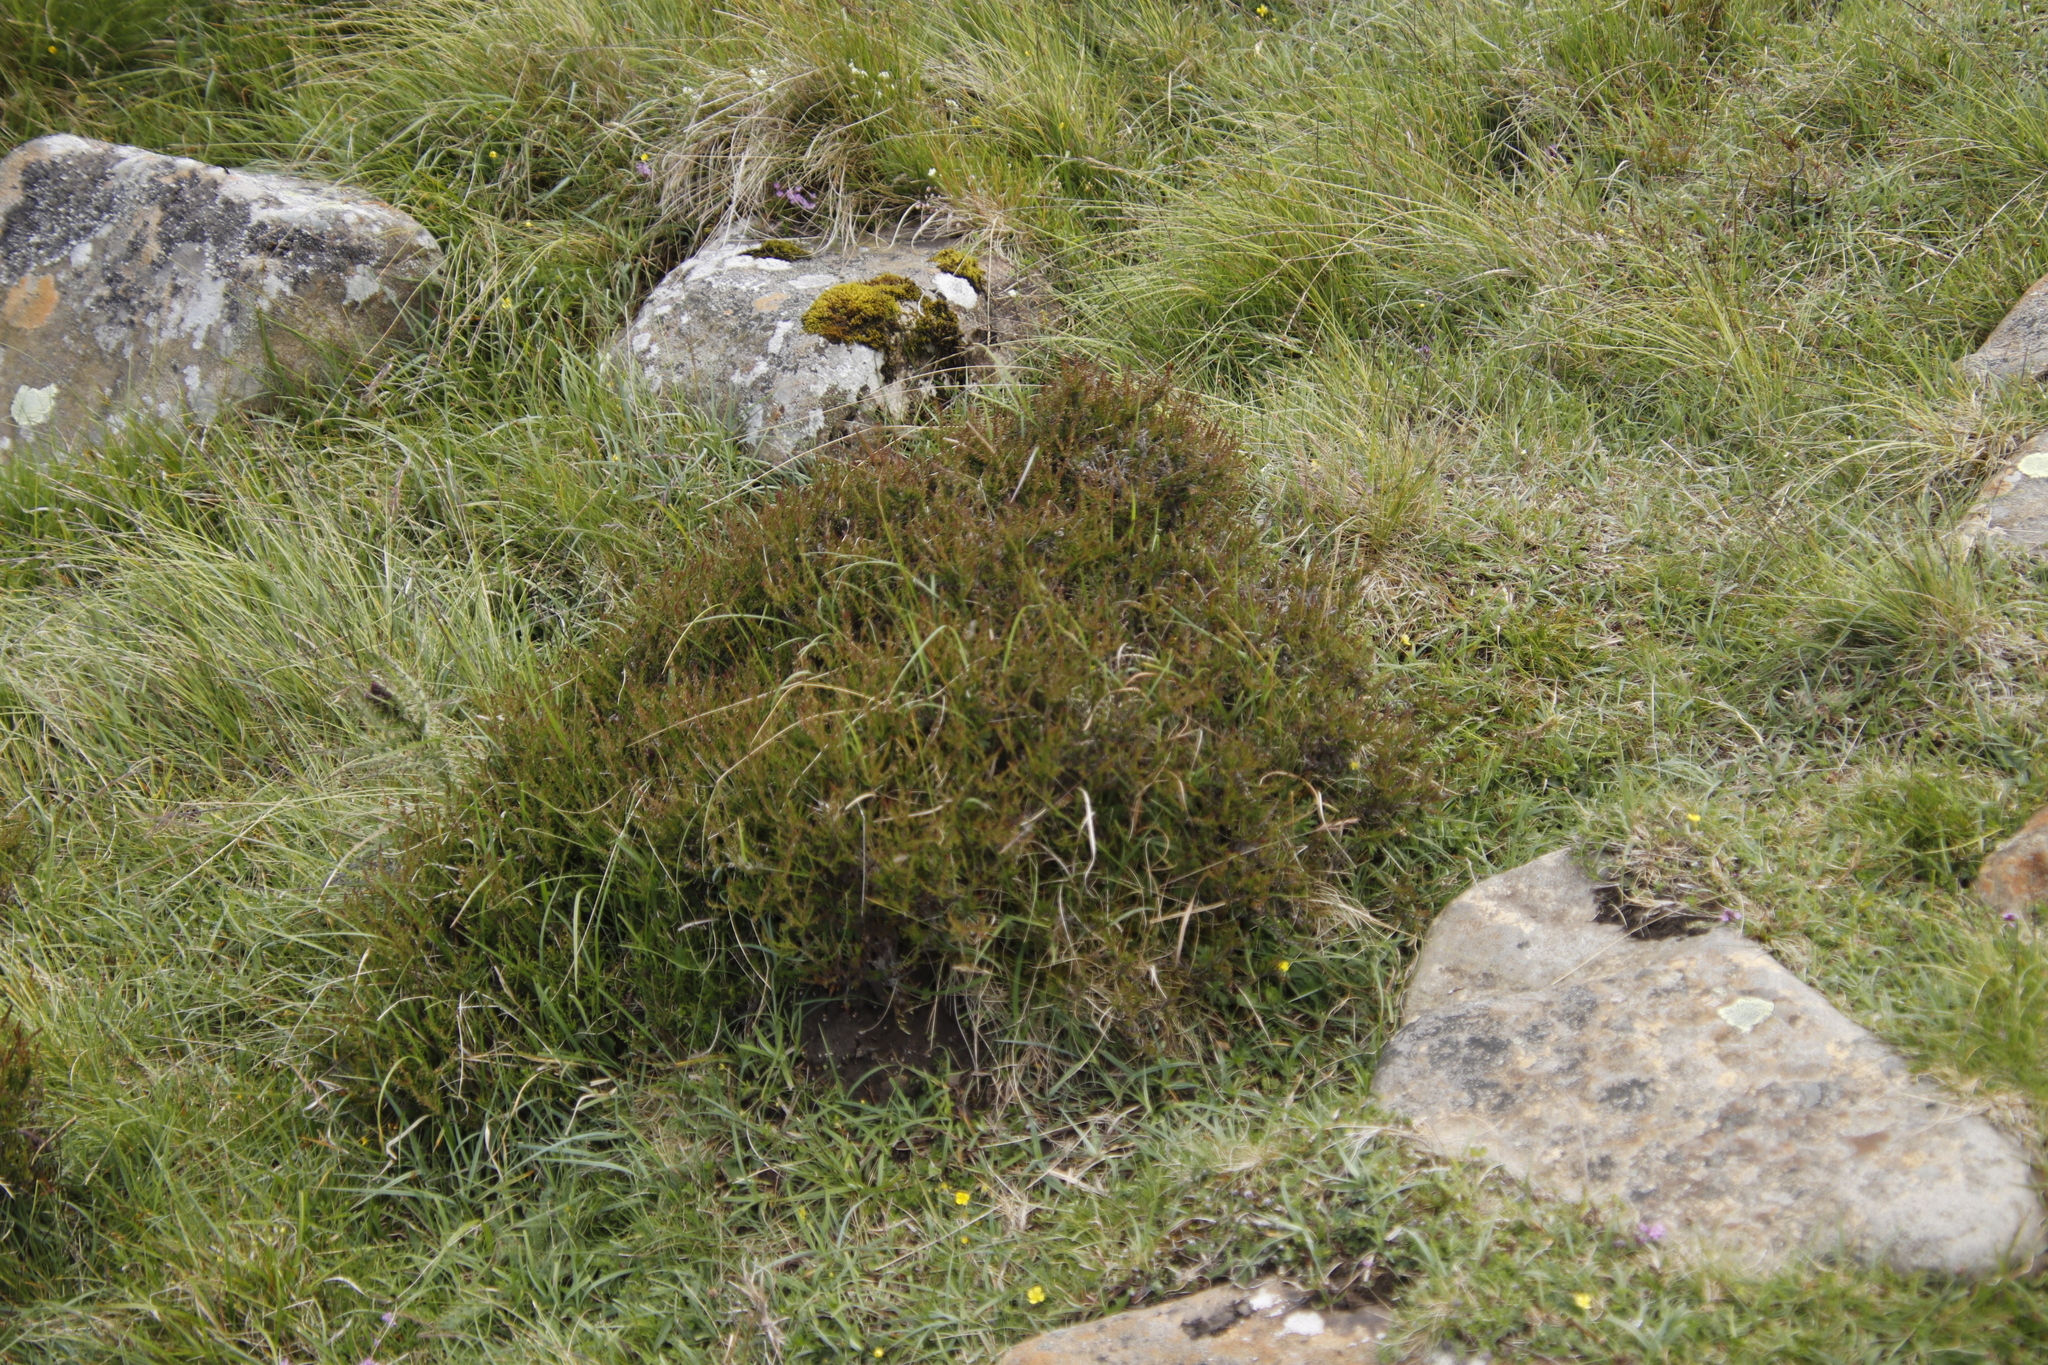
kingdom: Plantae
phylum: Tracheophyta
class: Magnoliopsida
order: Ericales
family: Ericaceae
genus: Calluna
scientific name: Calluna vulgaris
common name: Heather
